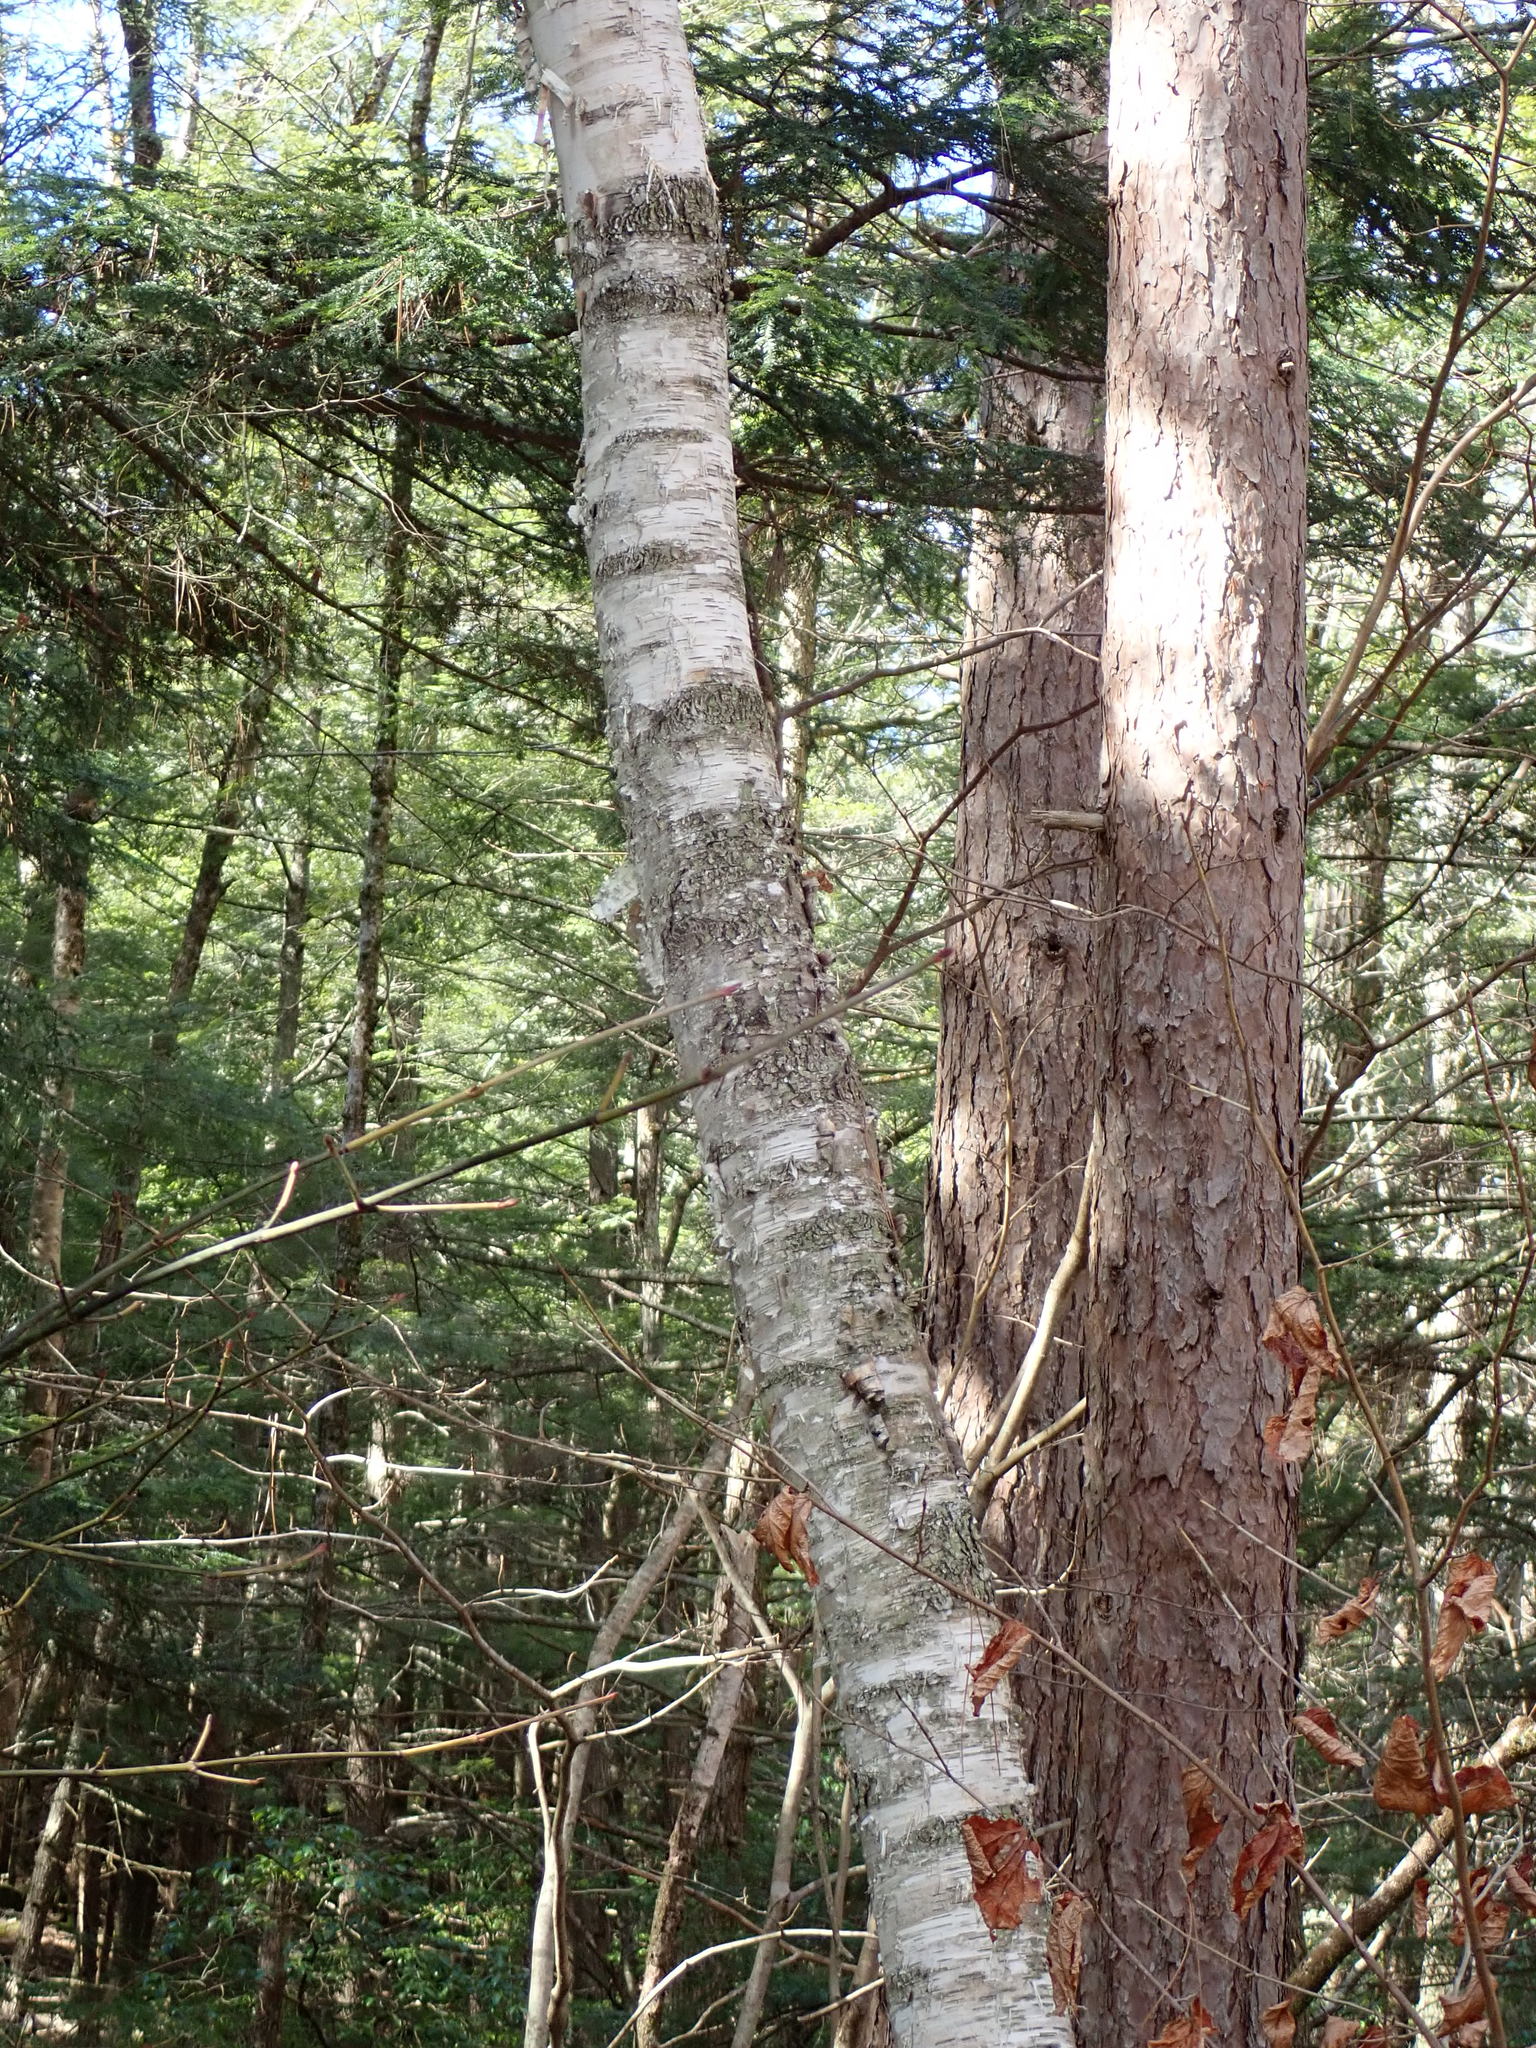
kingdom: Plantae
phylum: Tracheophyta
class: Magnoliopsida
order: Fagales
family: Betulaceae
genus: Betula
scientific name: Betula papyrifera
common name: Paper birch
